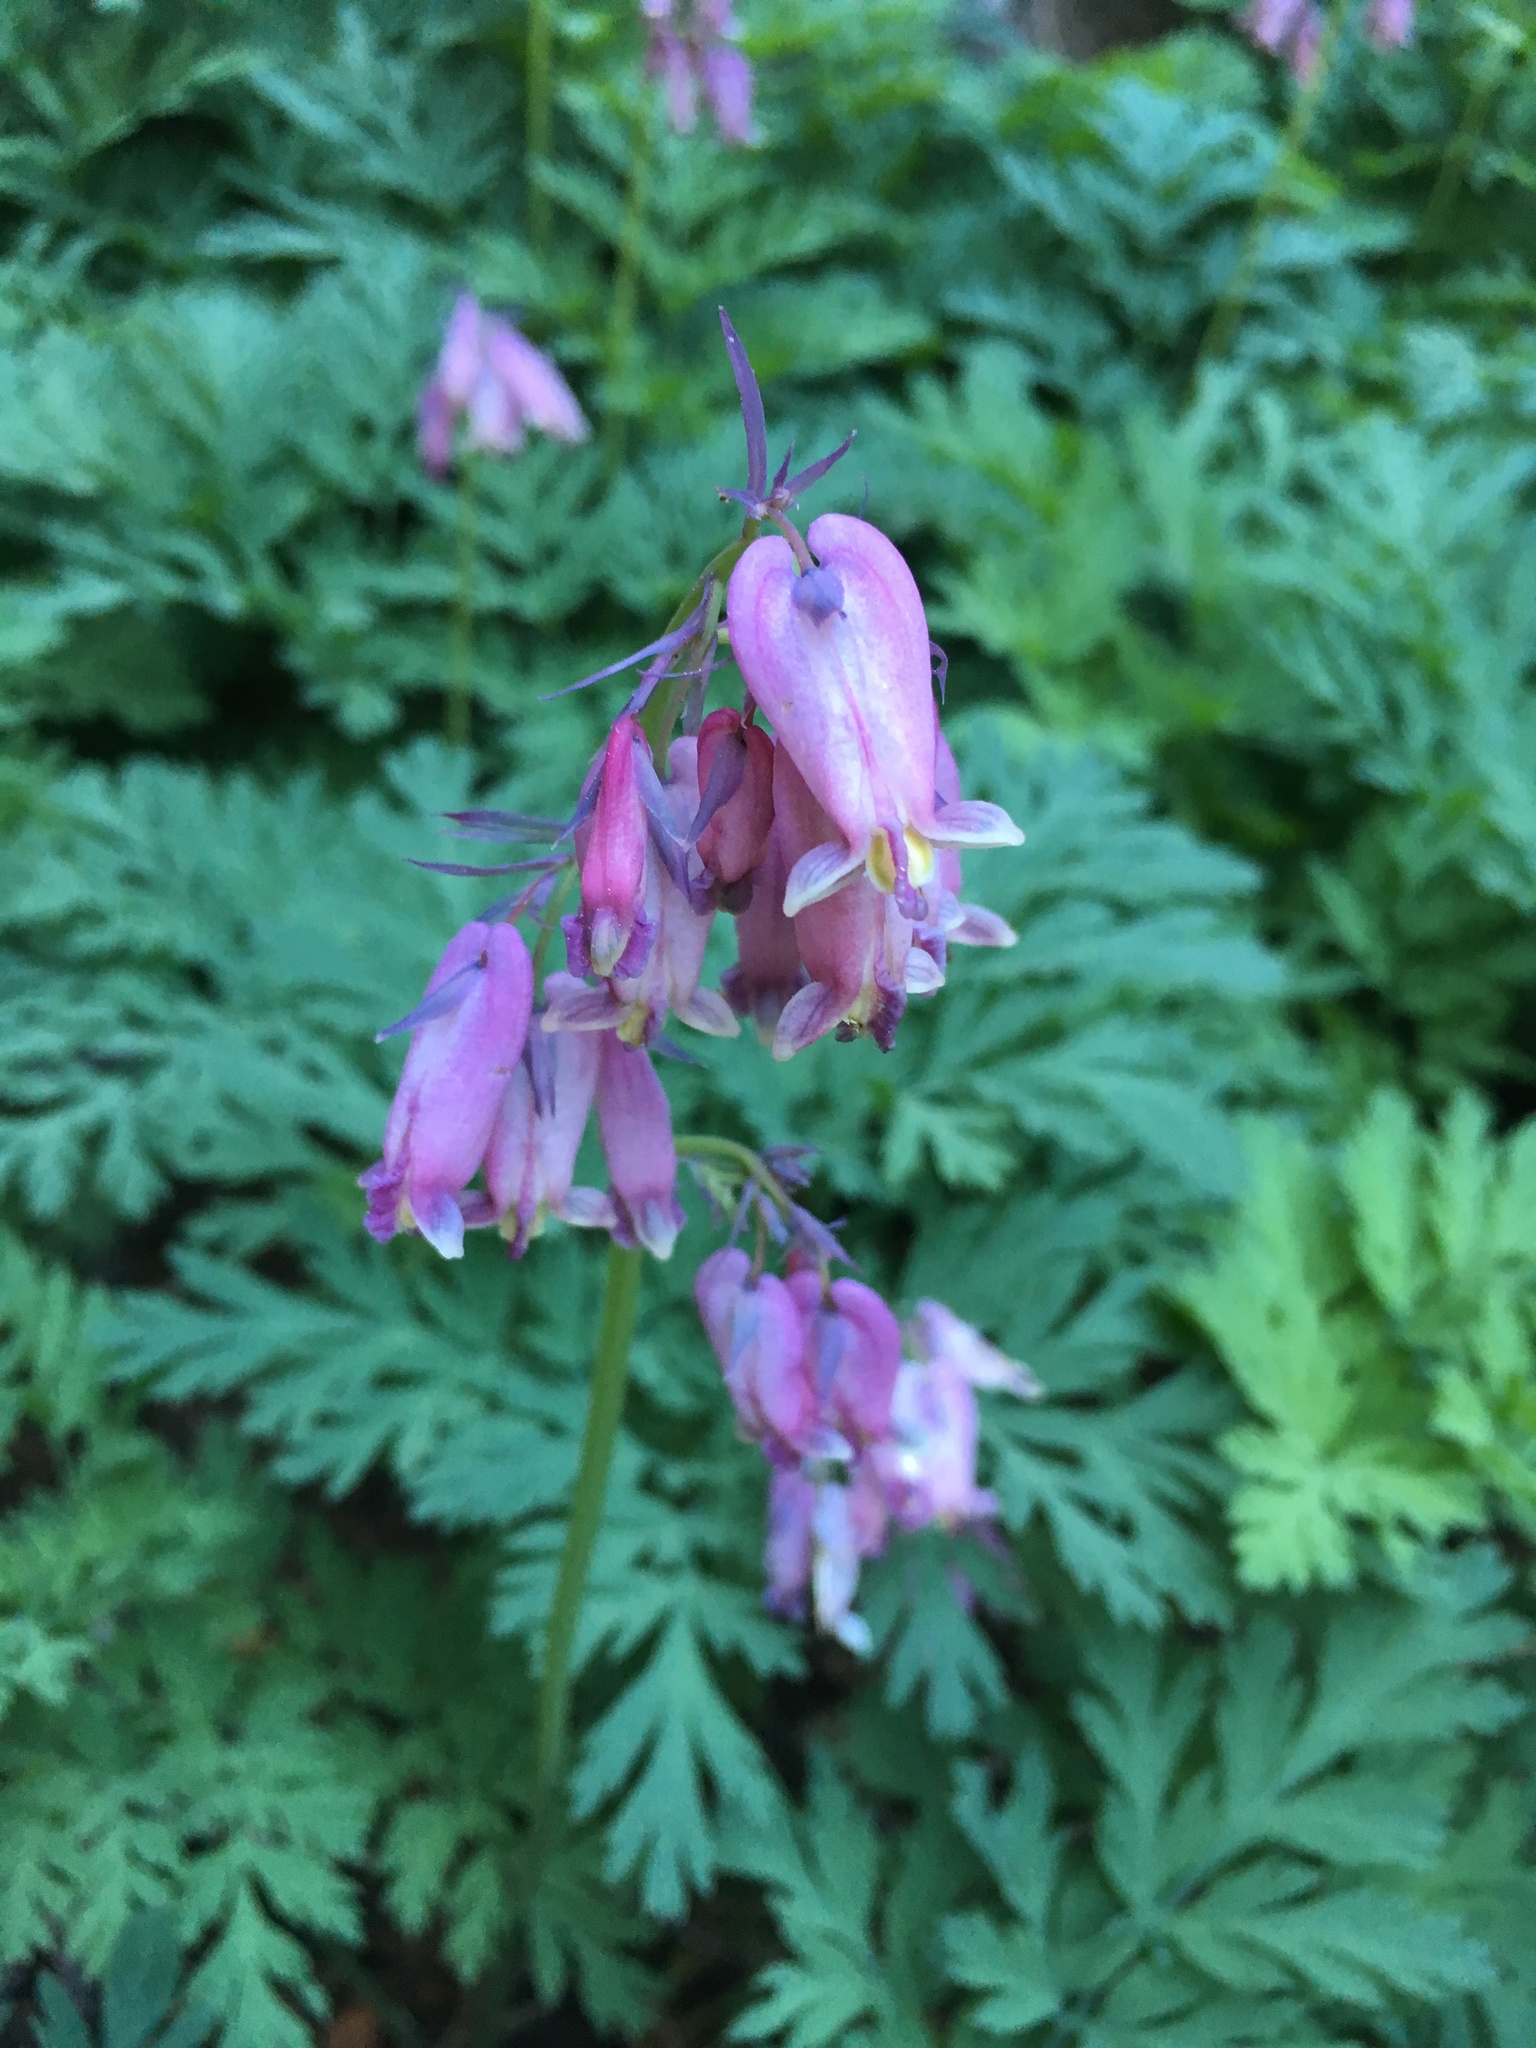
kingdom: Plantae
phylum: Tracheophyta
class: Magnoliopsida
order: Ranunculales
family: Papaveraceae
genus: Dicentra
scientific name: Dicentra formosa
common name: Bleeding-heart
